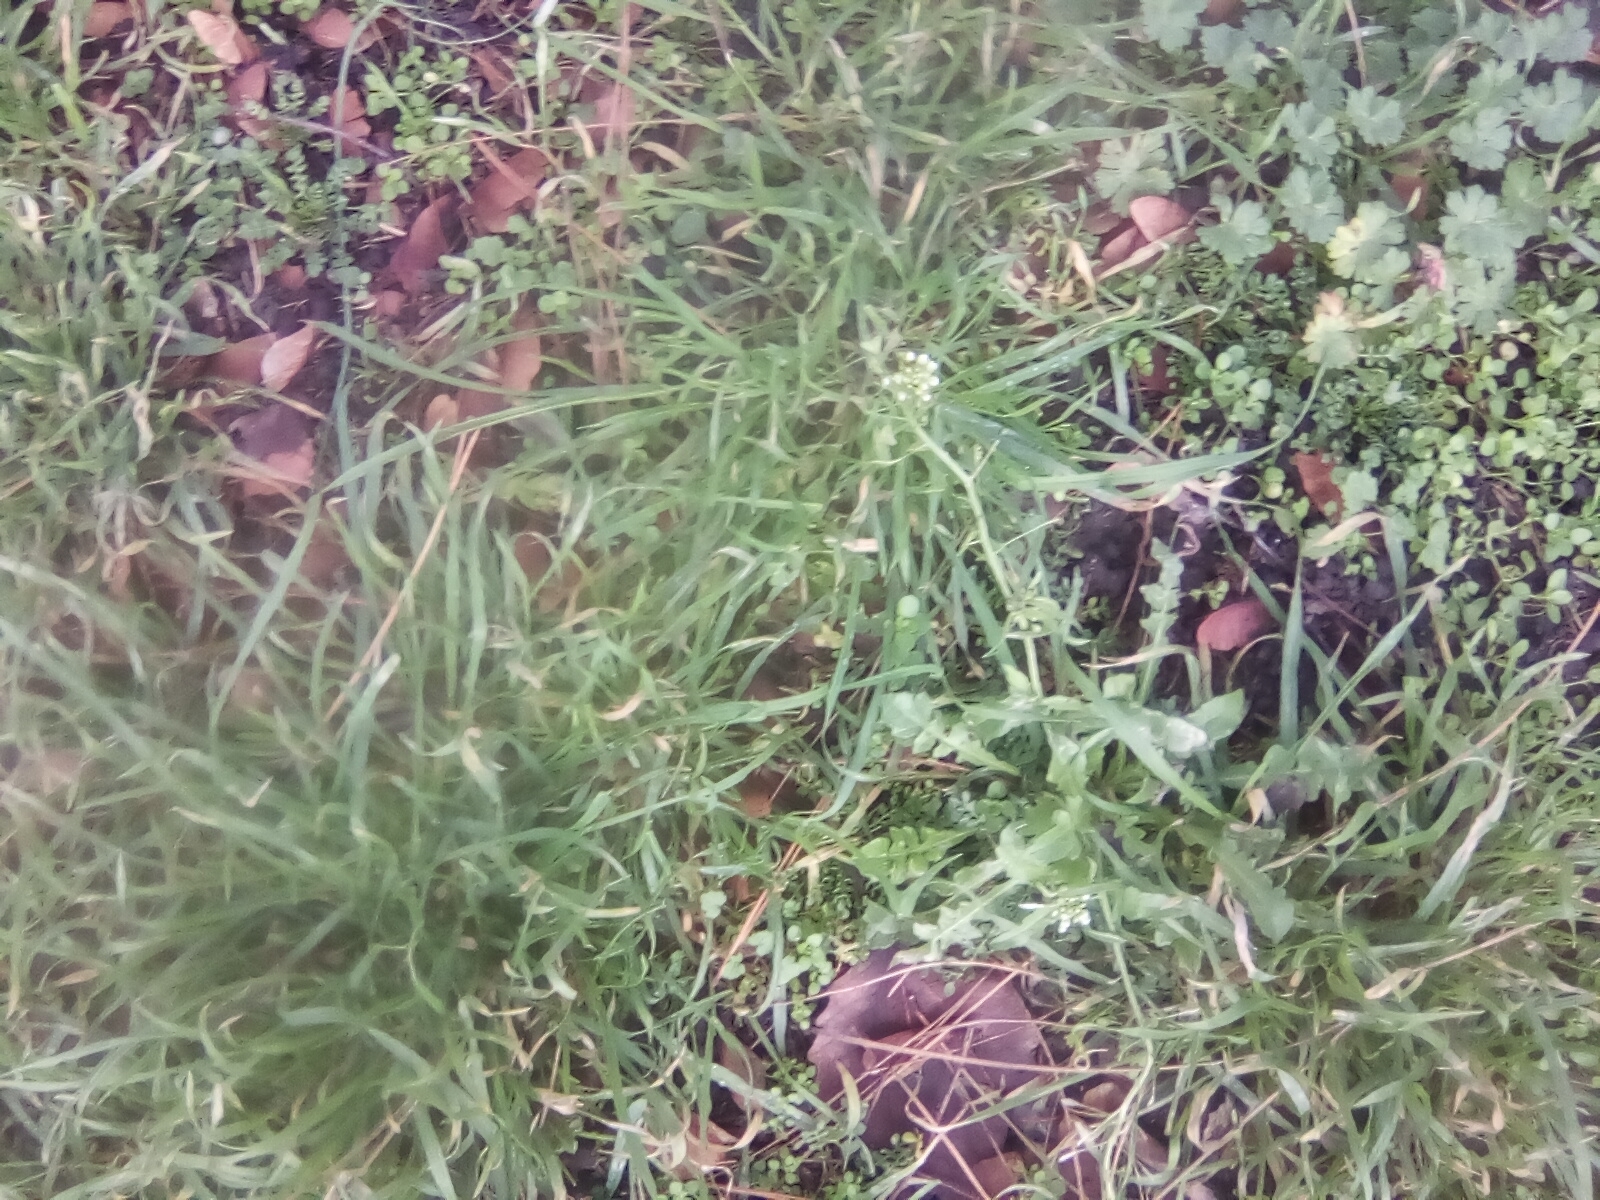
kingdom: Plantae
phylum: Tracheophyta
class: Magnoliopsida
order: Brassicales
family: Brassicaceae
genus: Capsella
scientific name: Capsella bursa-pastoris
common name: Shepherd's purse
